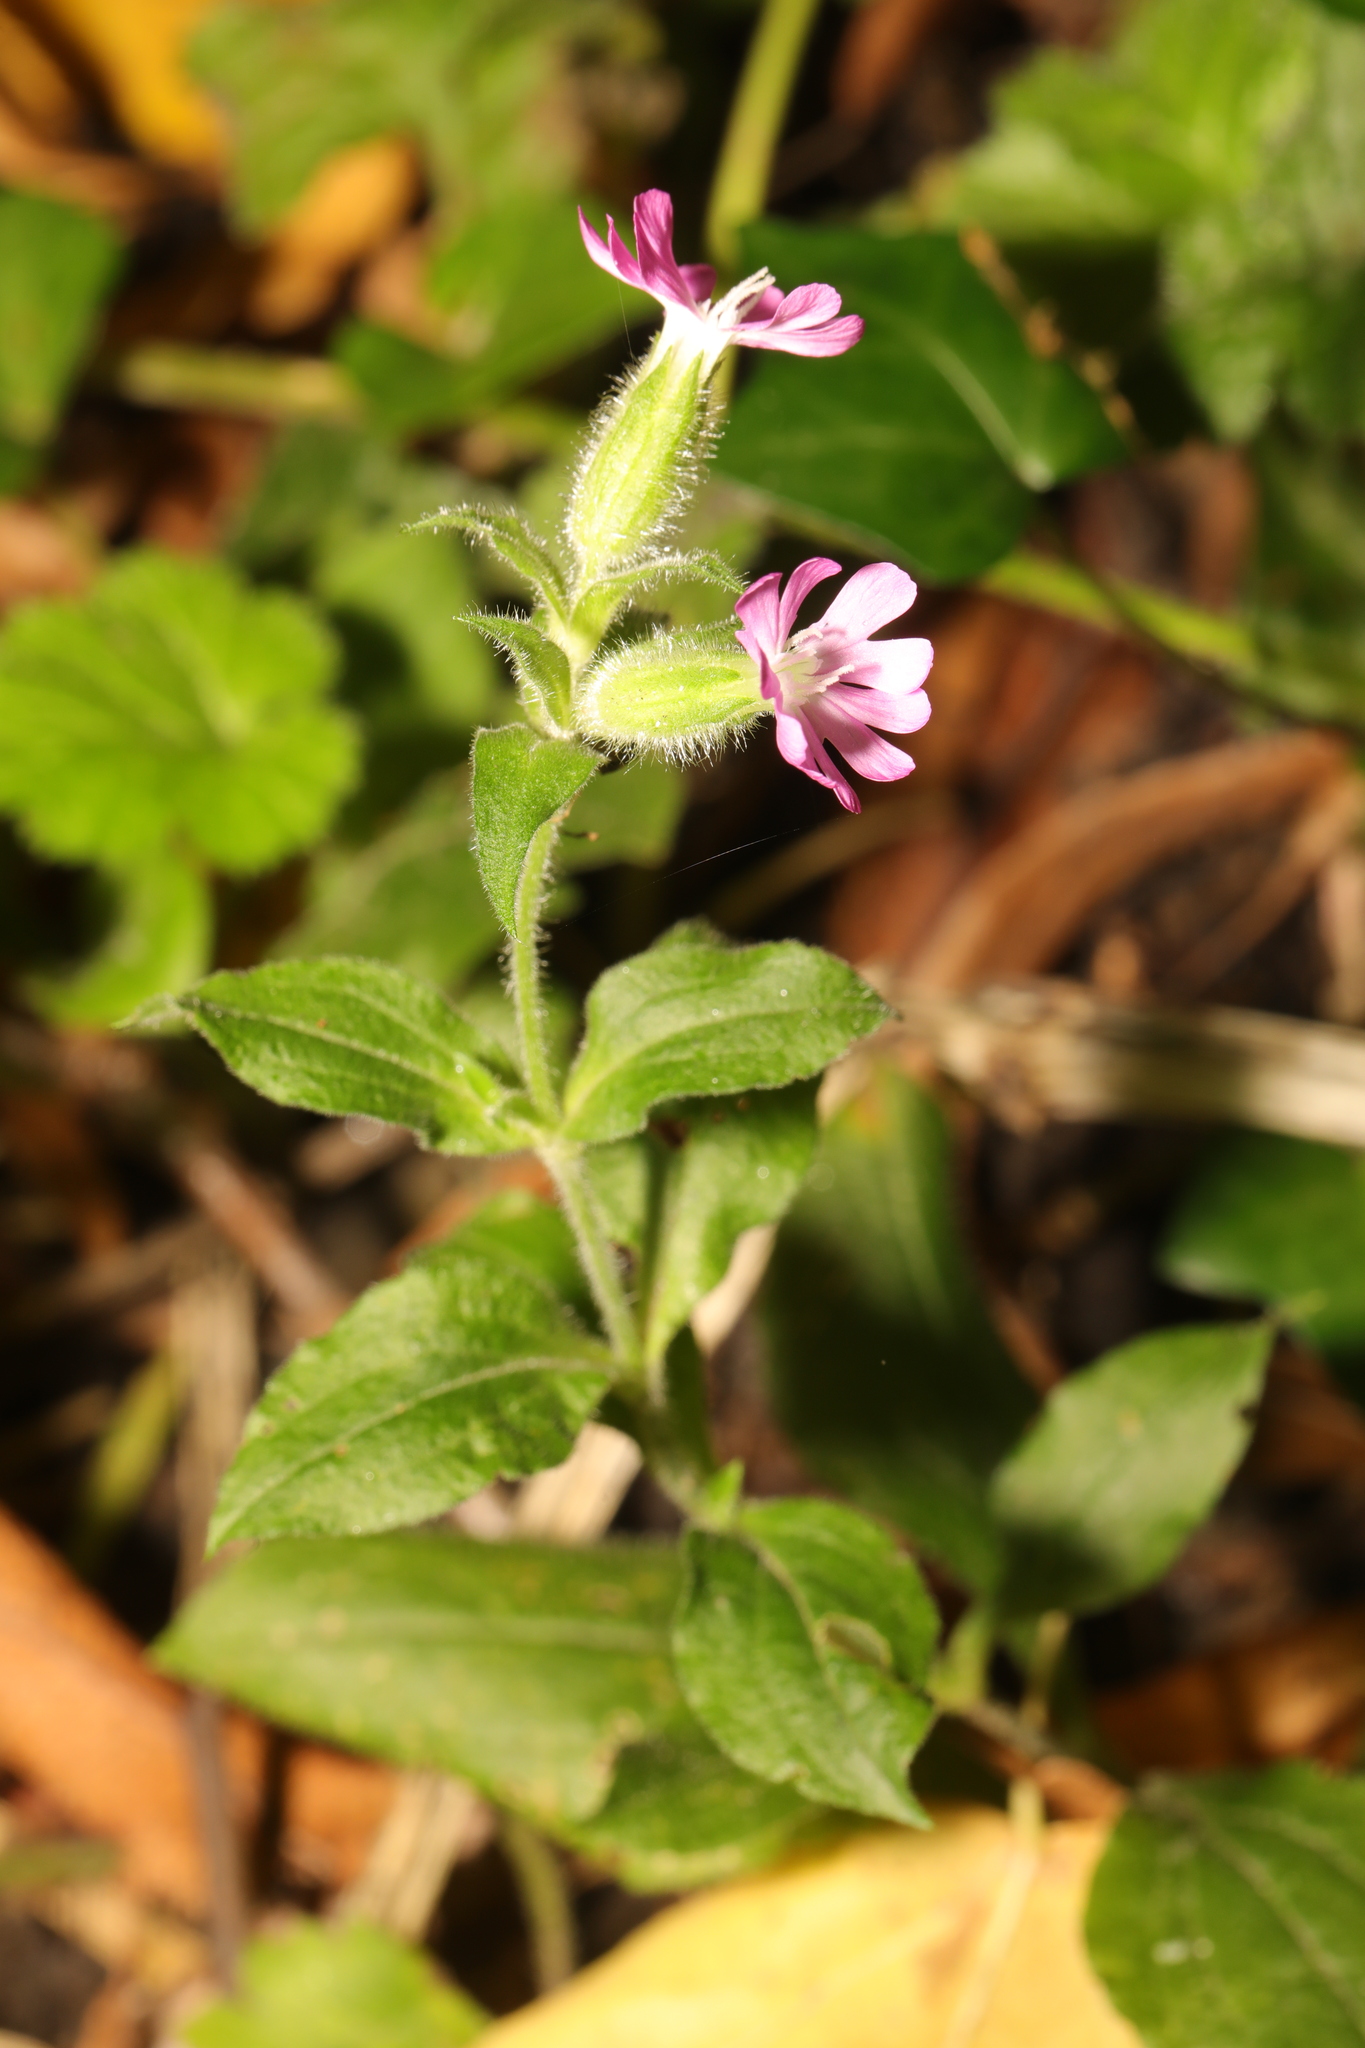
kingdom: Plantae
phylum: Tracheophyta
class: Magnoliopsida
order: Caryophyllales
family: Caryophyllaceae
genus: Silene
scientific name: Silene dioica
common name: Red campion
